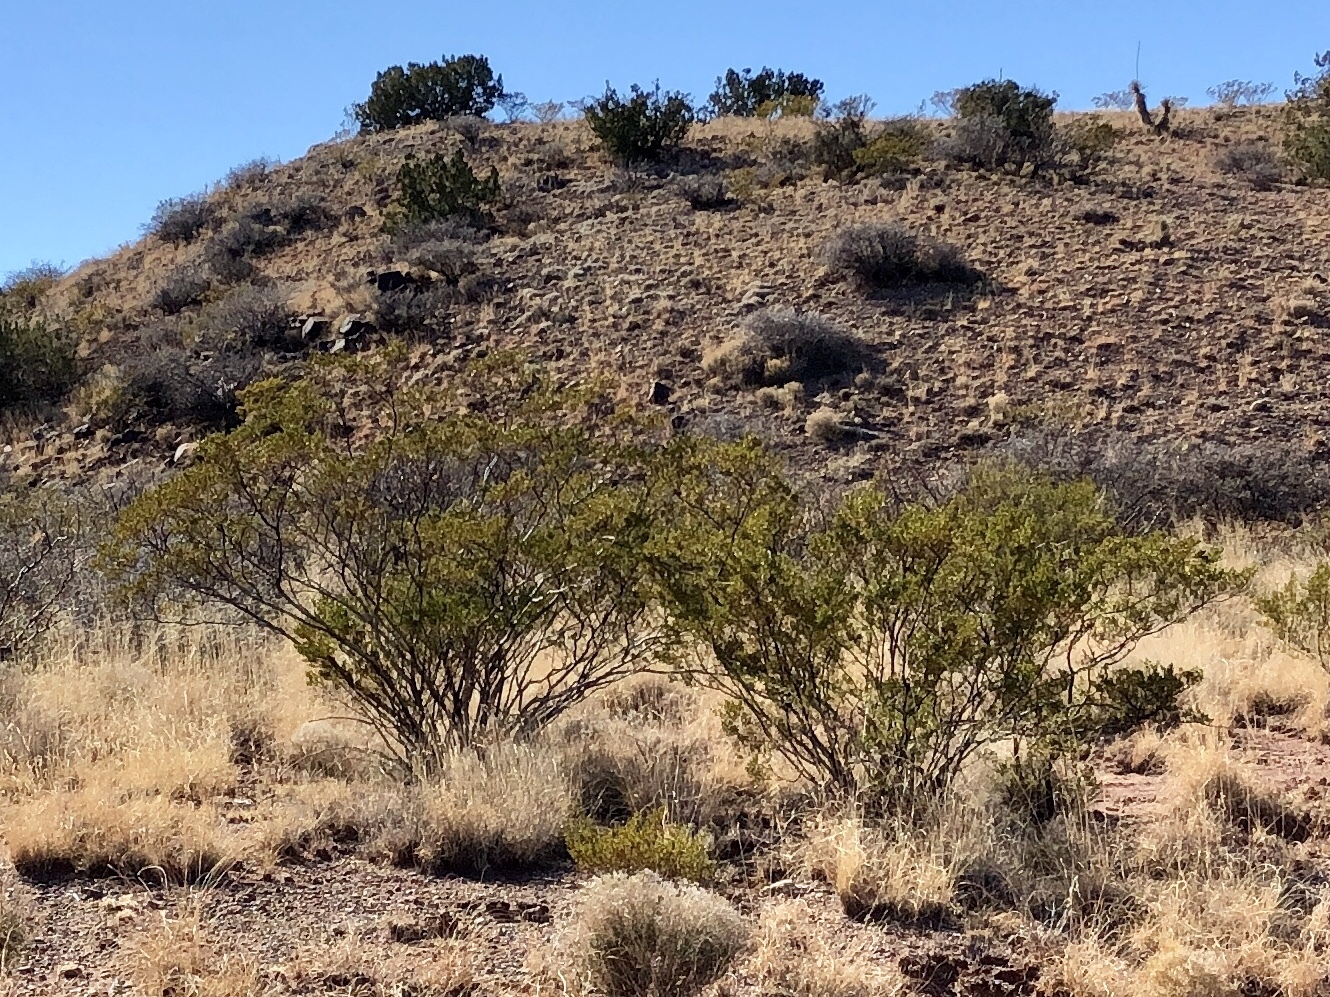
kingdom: Plantae
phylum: Tracheophyta
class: Magnoliopsida
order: Zygophyllales
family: Zygophyllaceae
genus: Larrea
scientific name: Larrea tridentata
